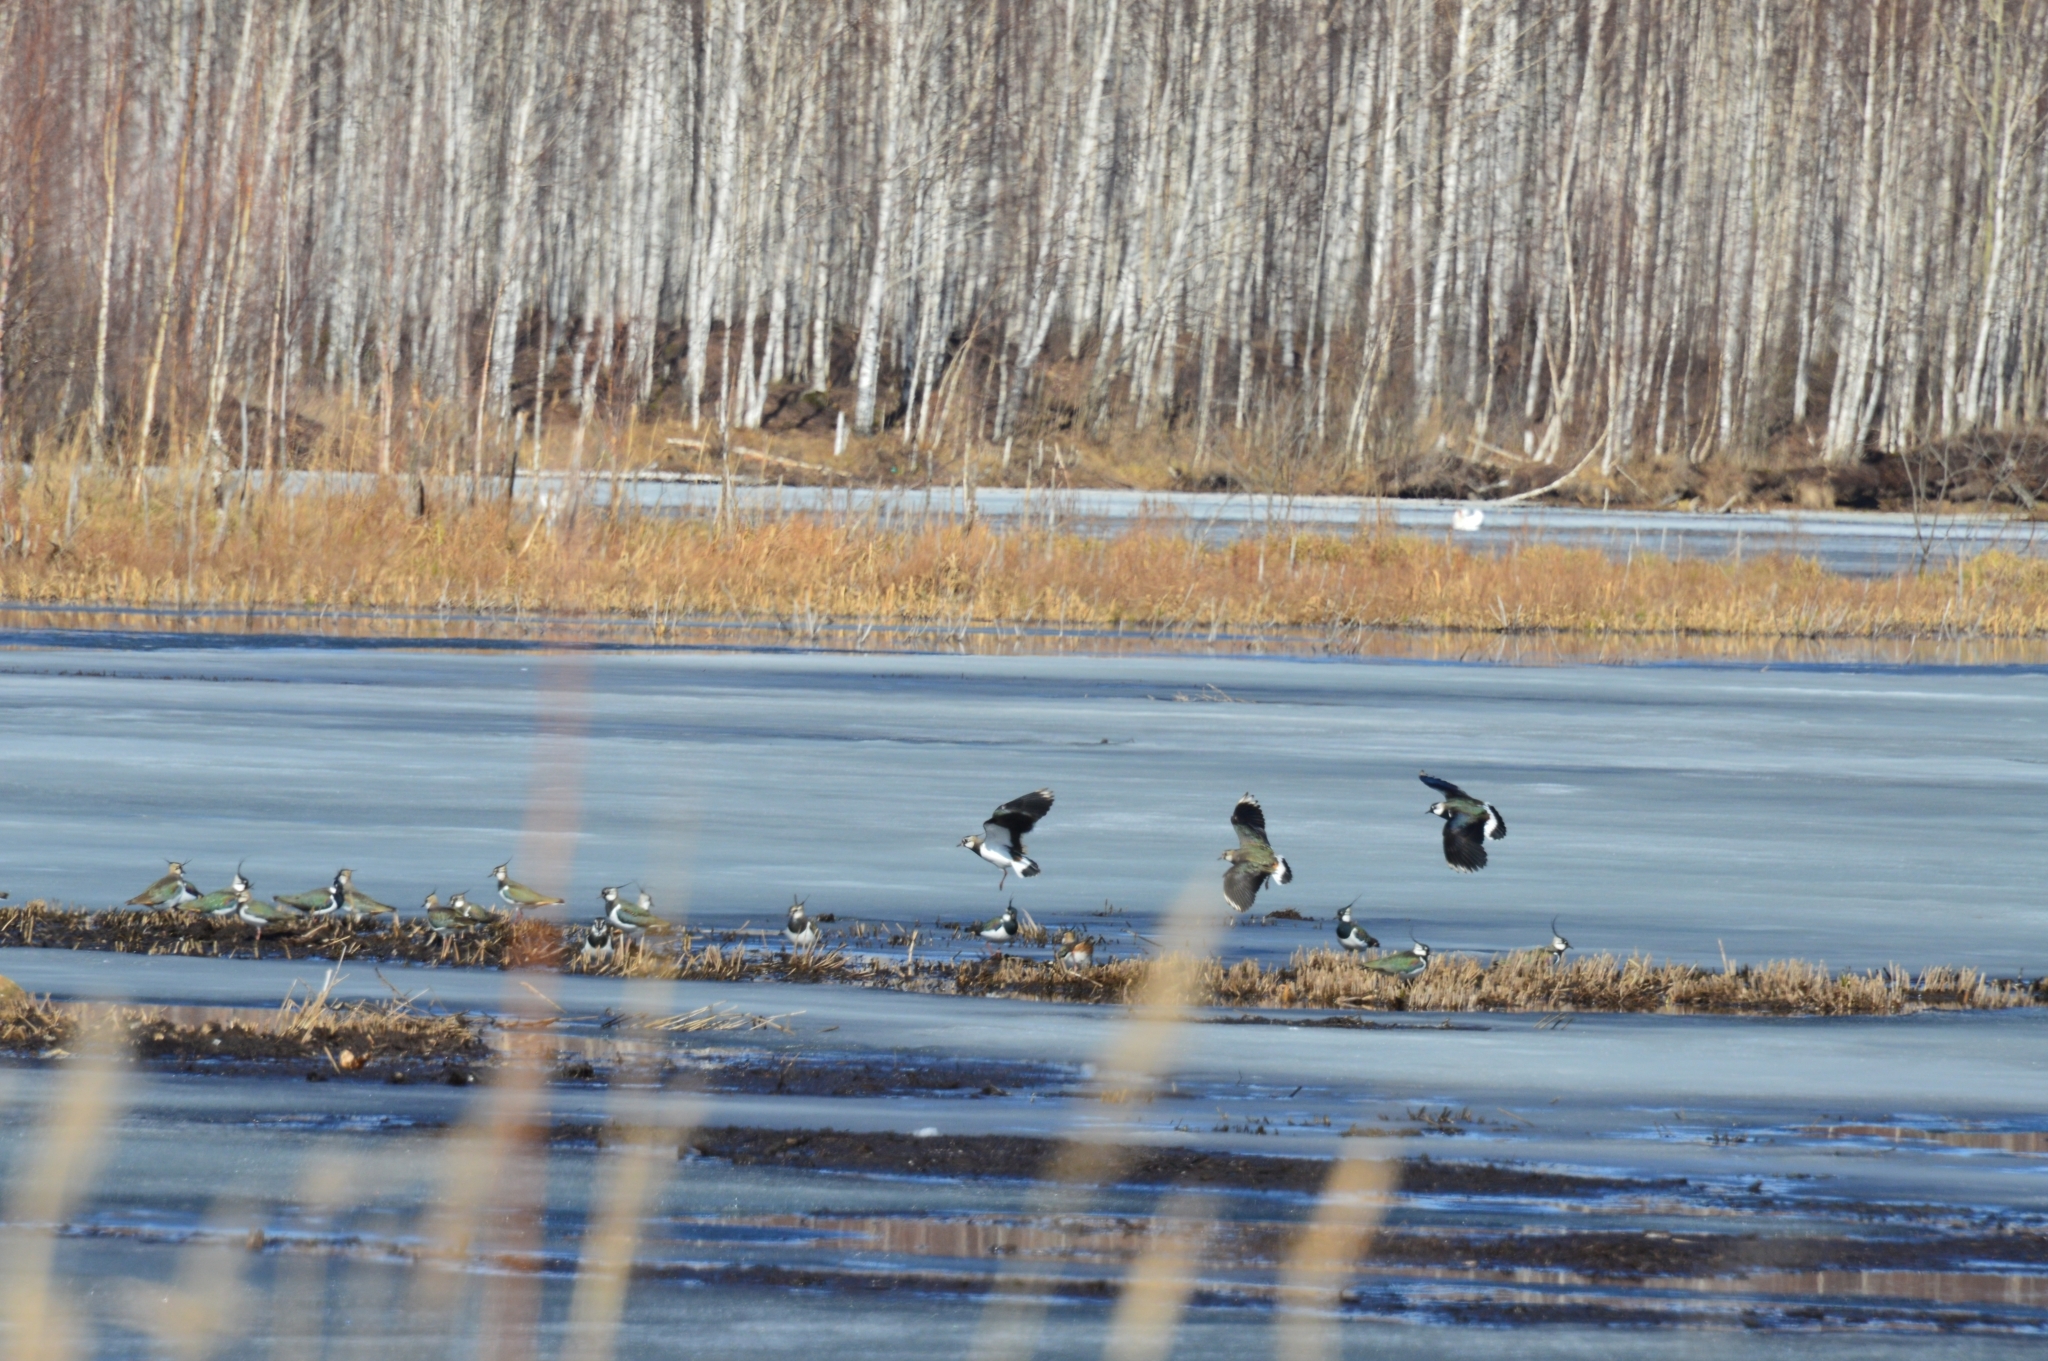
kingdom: Animalia
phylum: Chordata
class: Aves
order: Charadriiformes
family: Charadriidae
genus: Vanellus
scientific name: Vanellus vanellus
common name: Northern lapwing
